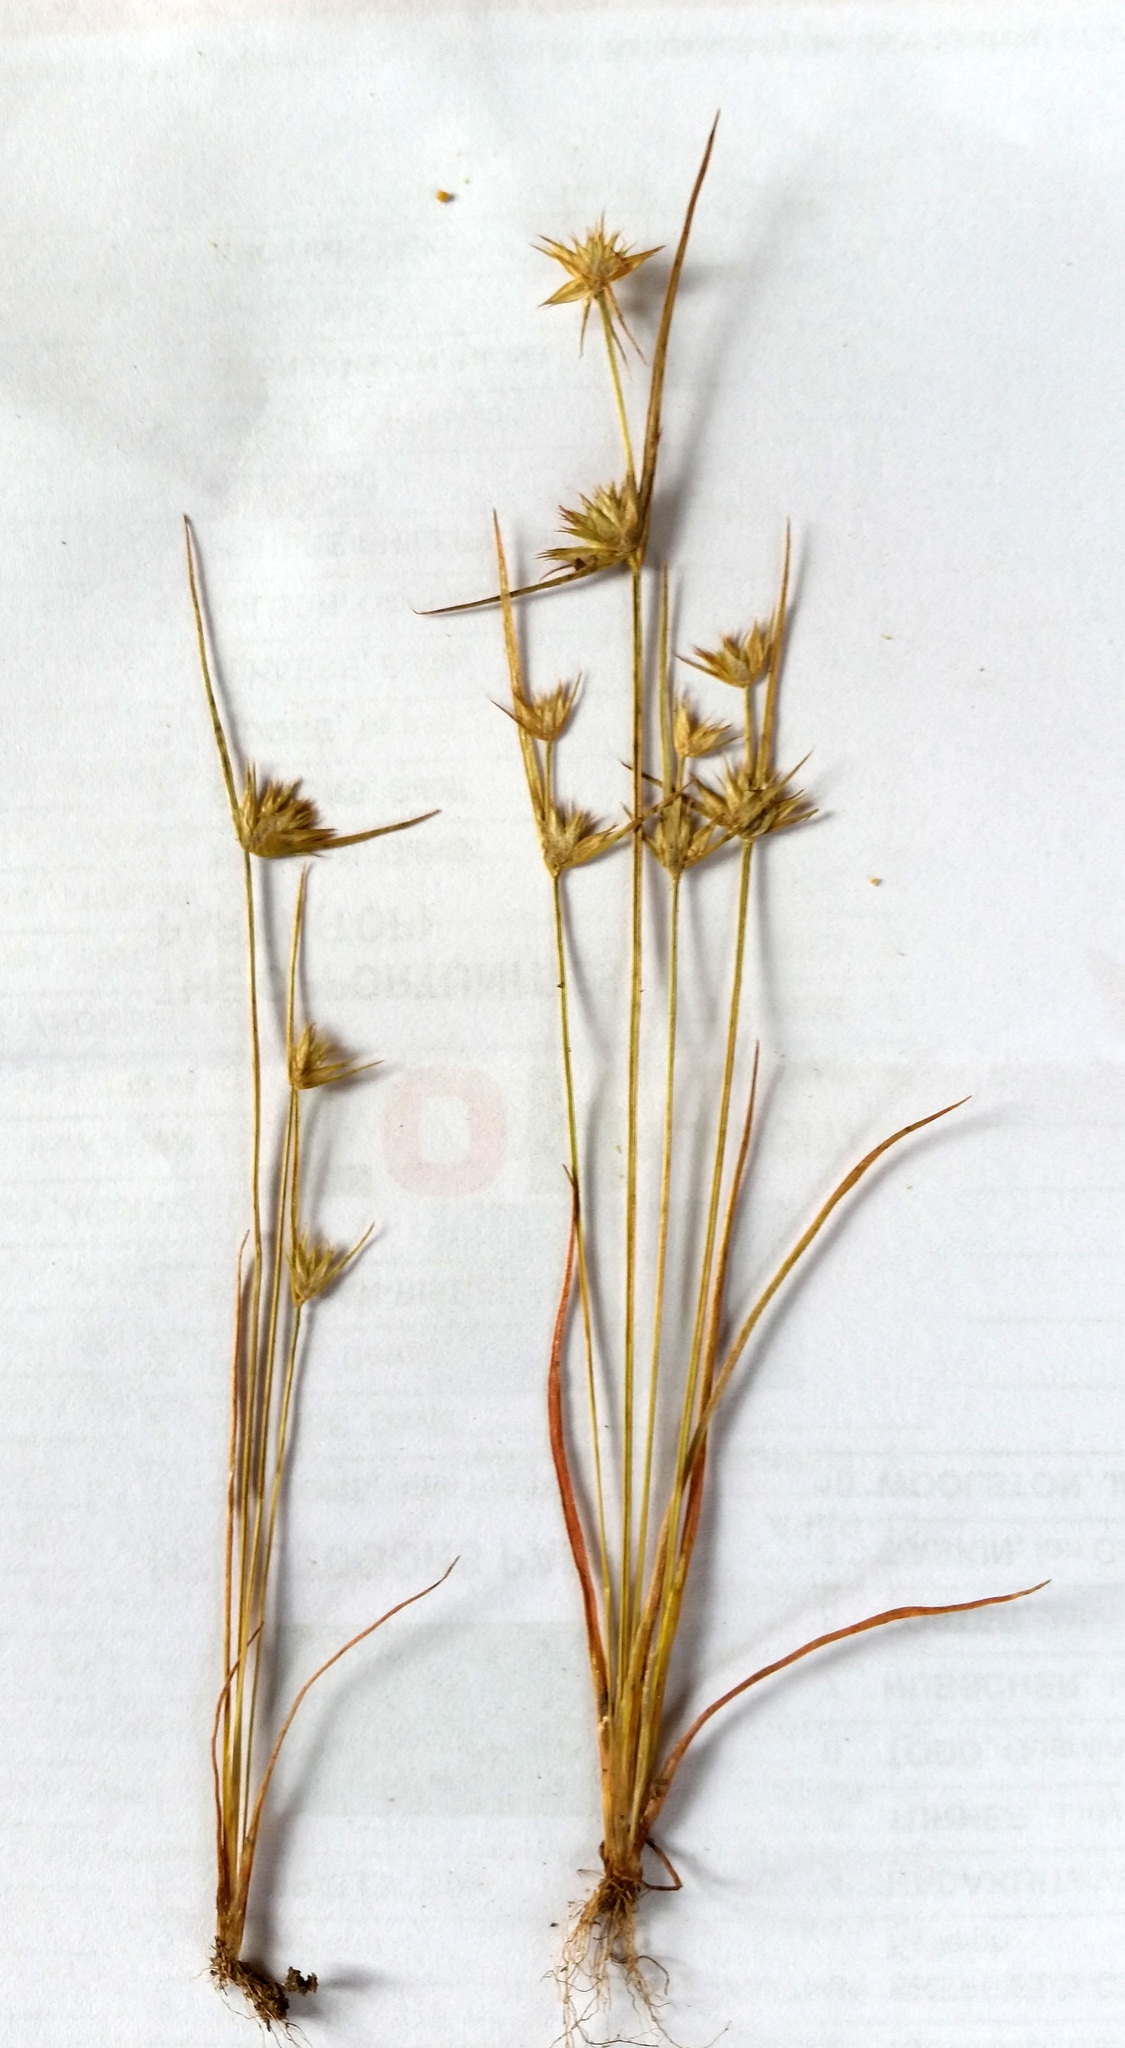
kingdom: Plantae
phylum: Tracheophyta
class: Liliopsida
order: Poales
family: Juncaceae
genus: Juncus
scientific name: Juncus capitatus
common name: Dwarf rush
